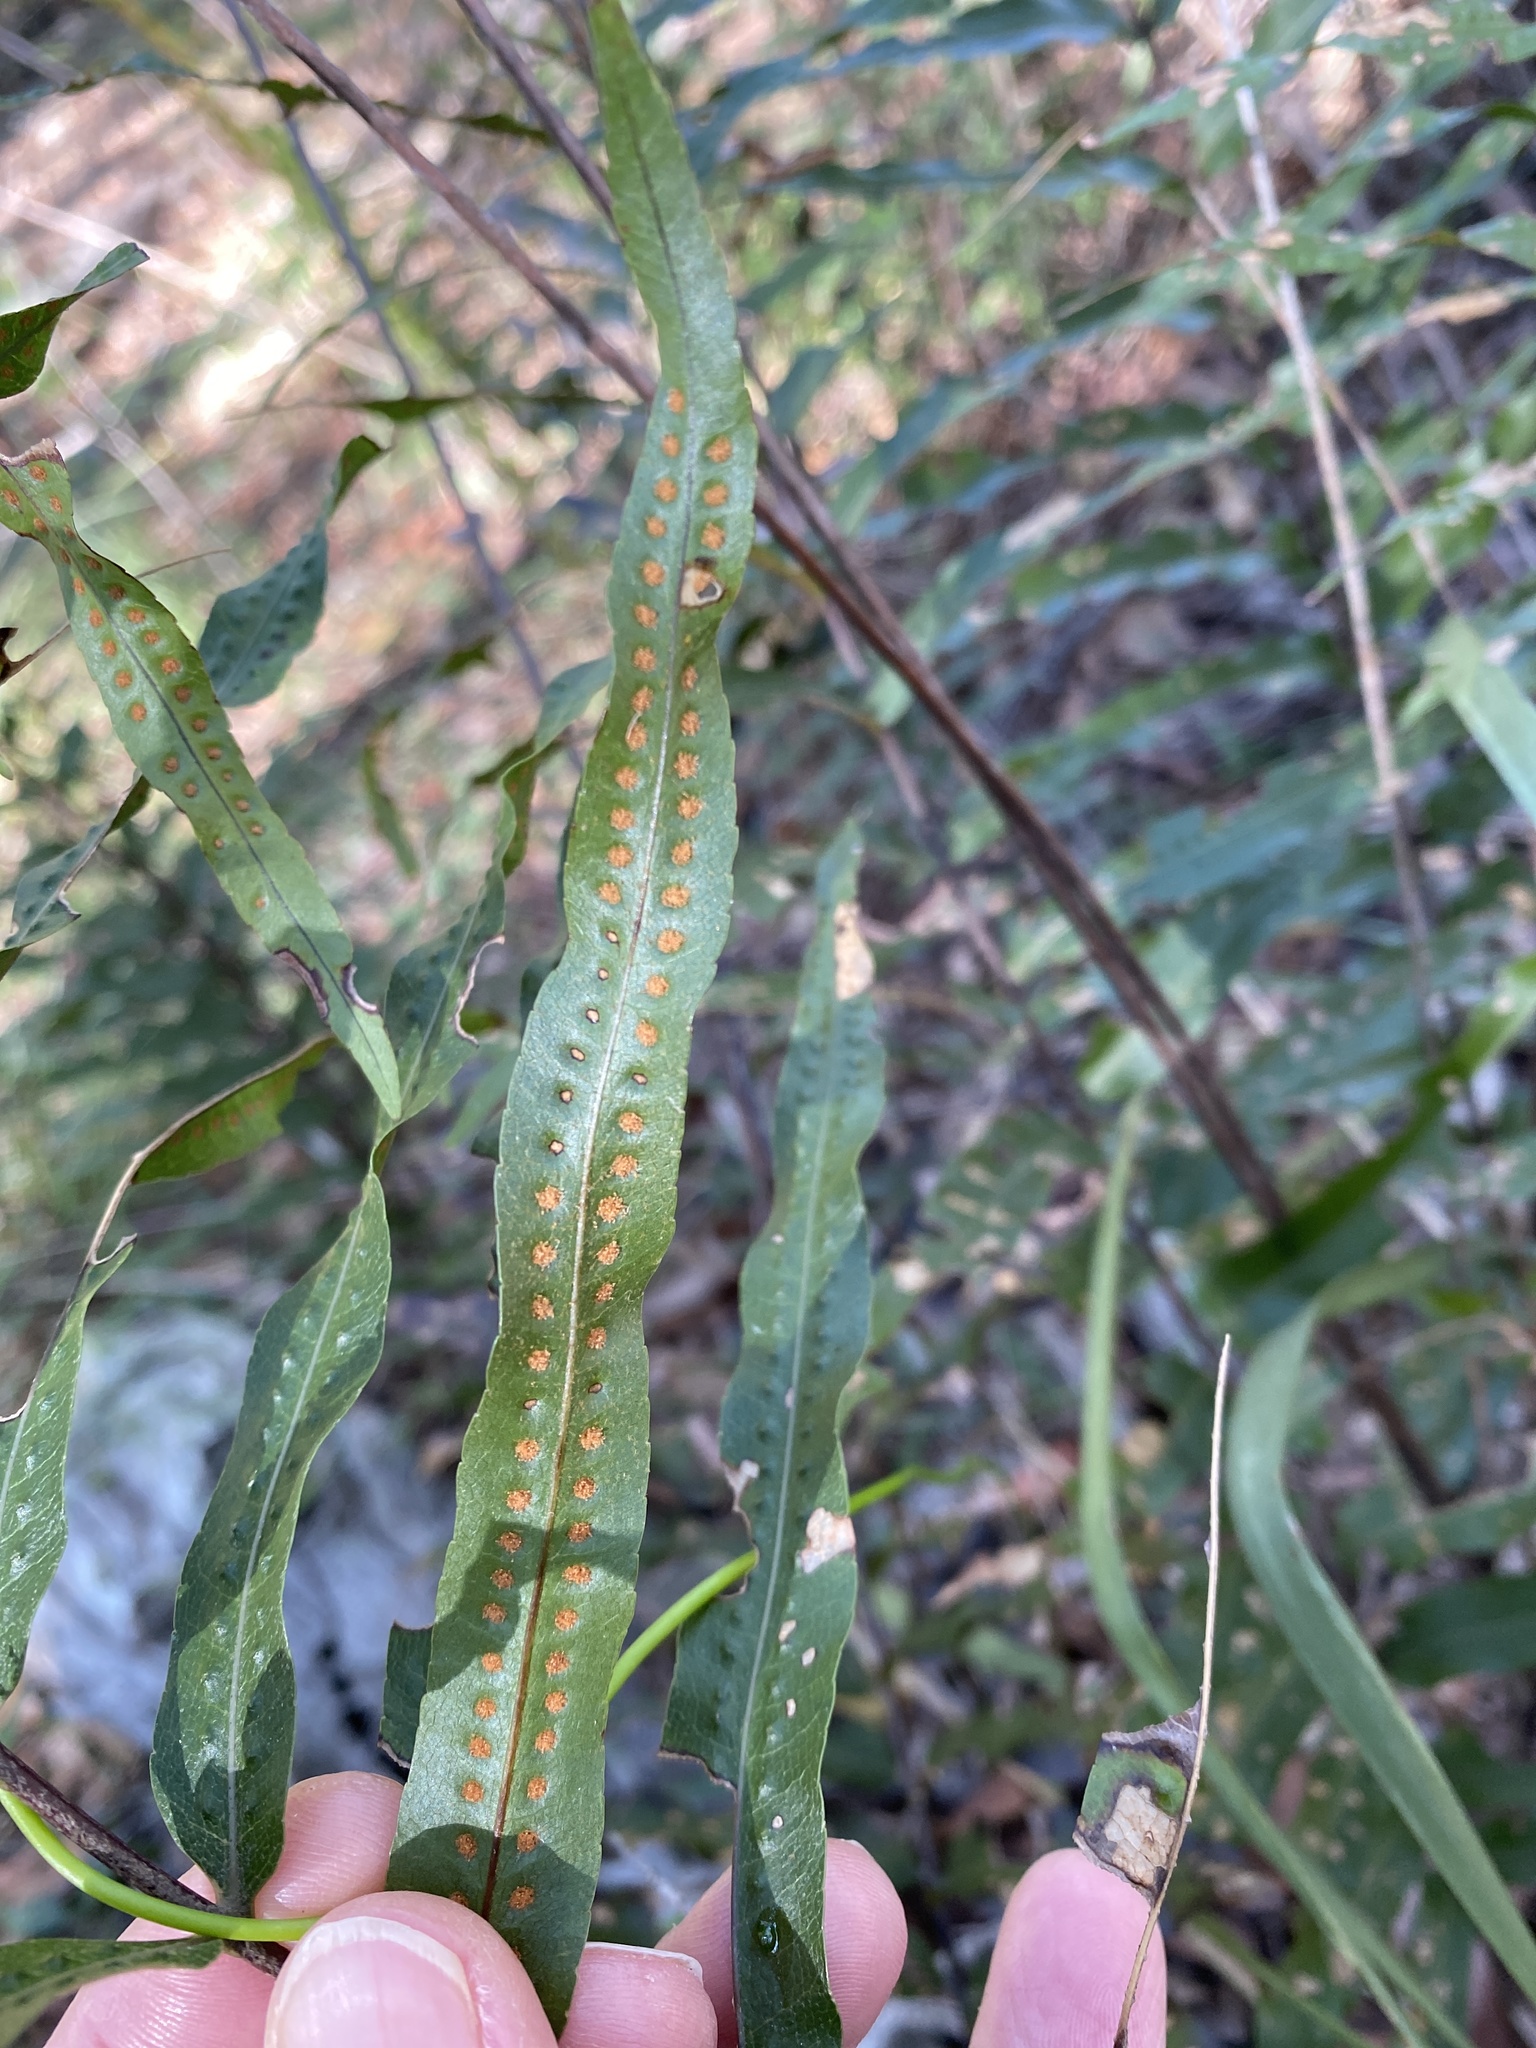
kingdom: Plantae
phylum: Tracheophyta
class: Polypodiopsida
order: Polypodiales
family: Polypodiaceae
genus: Drynaria
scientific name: Drynaria rigidula
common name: Basket fern
